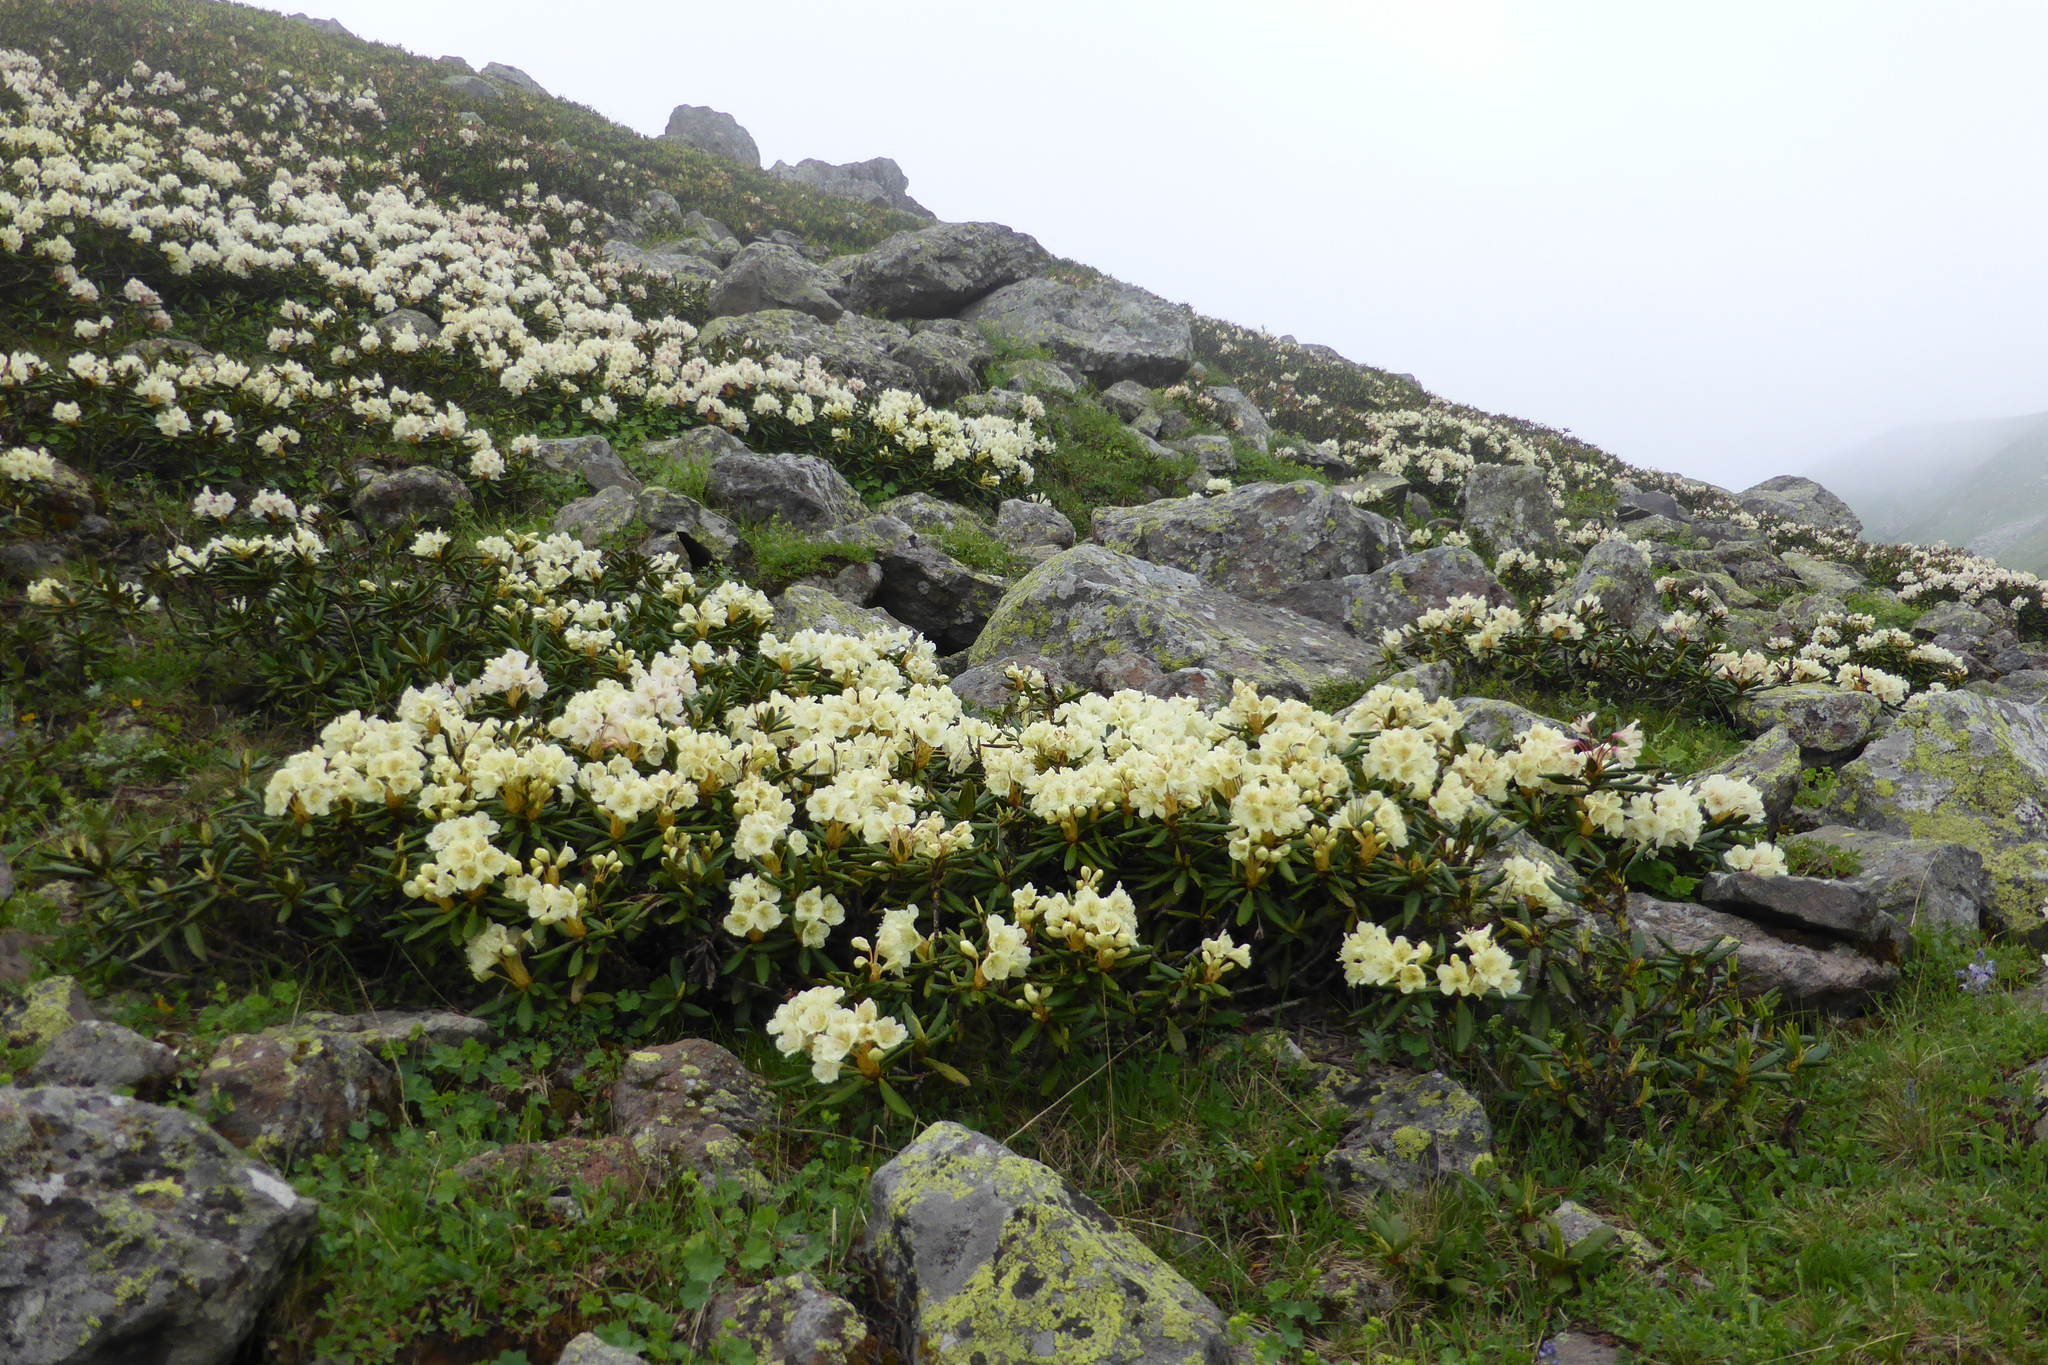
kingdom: Plantae
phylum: Tracheophyta
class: Magnoliopsida
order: Ericales
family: Ericaceae
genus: Rhododendron
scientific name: Rhododendron caucasicum
